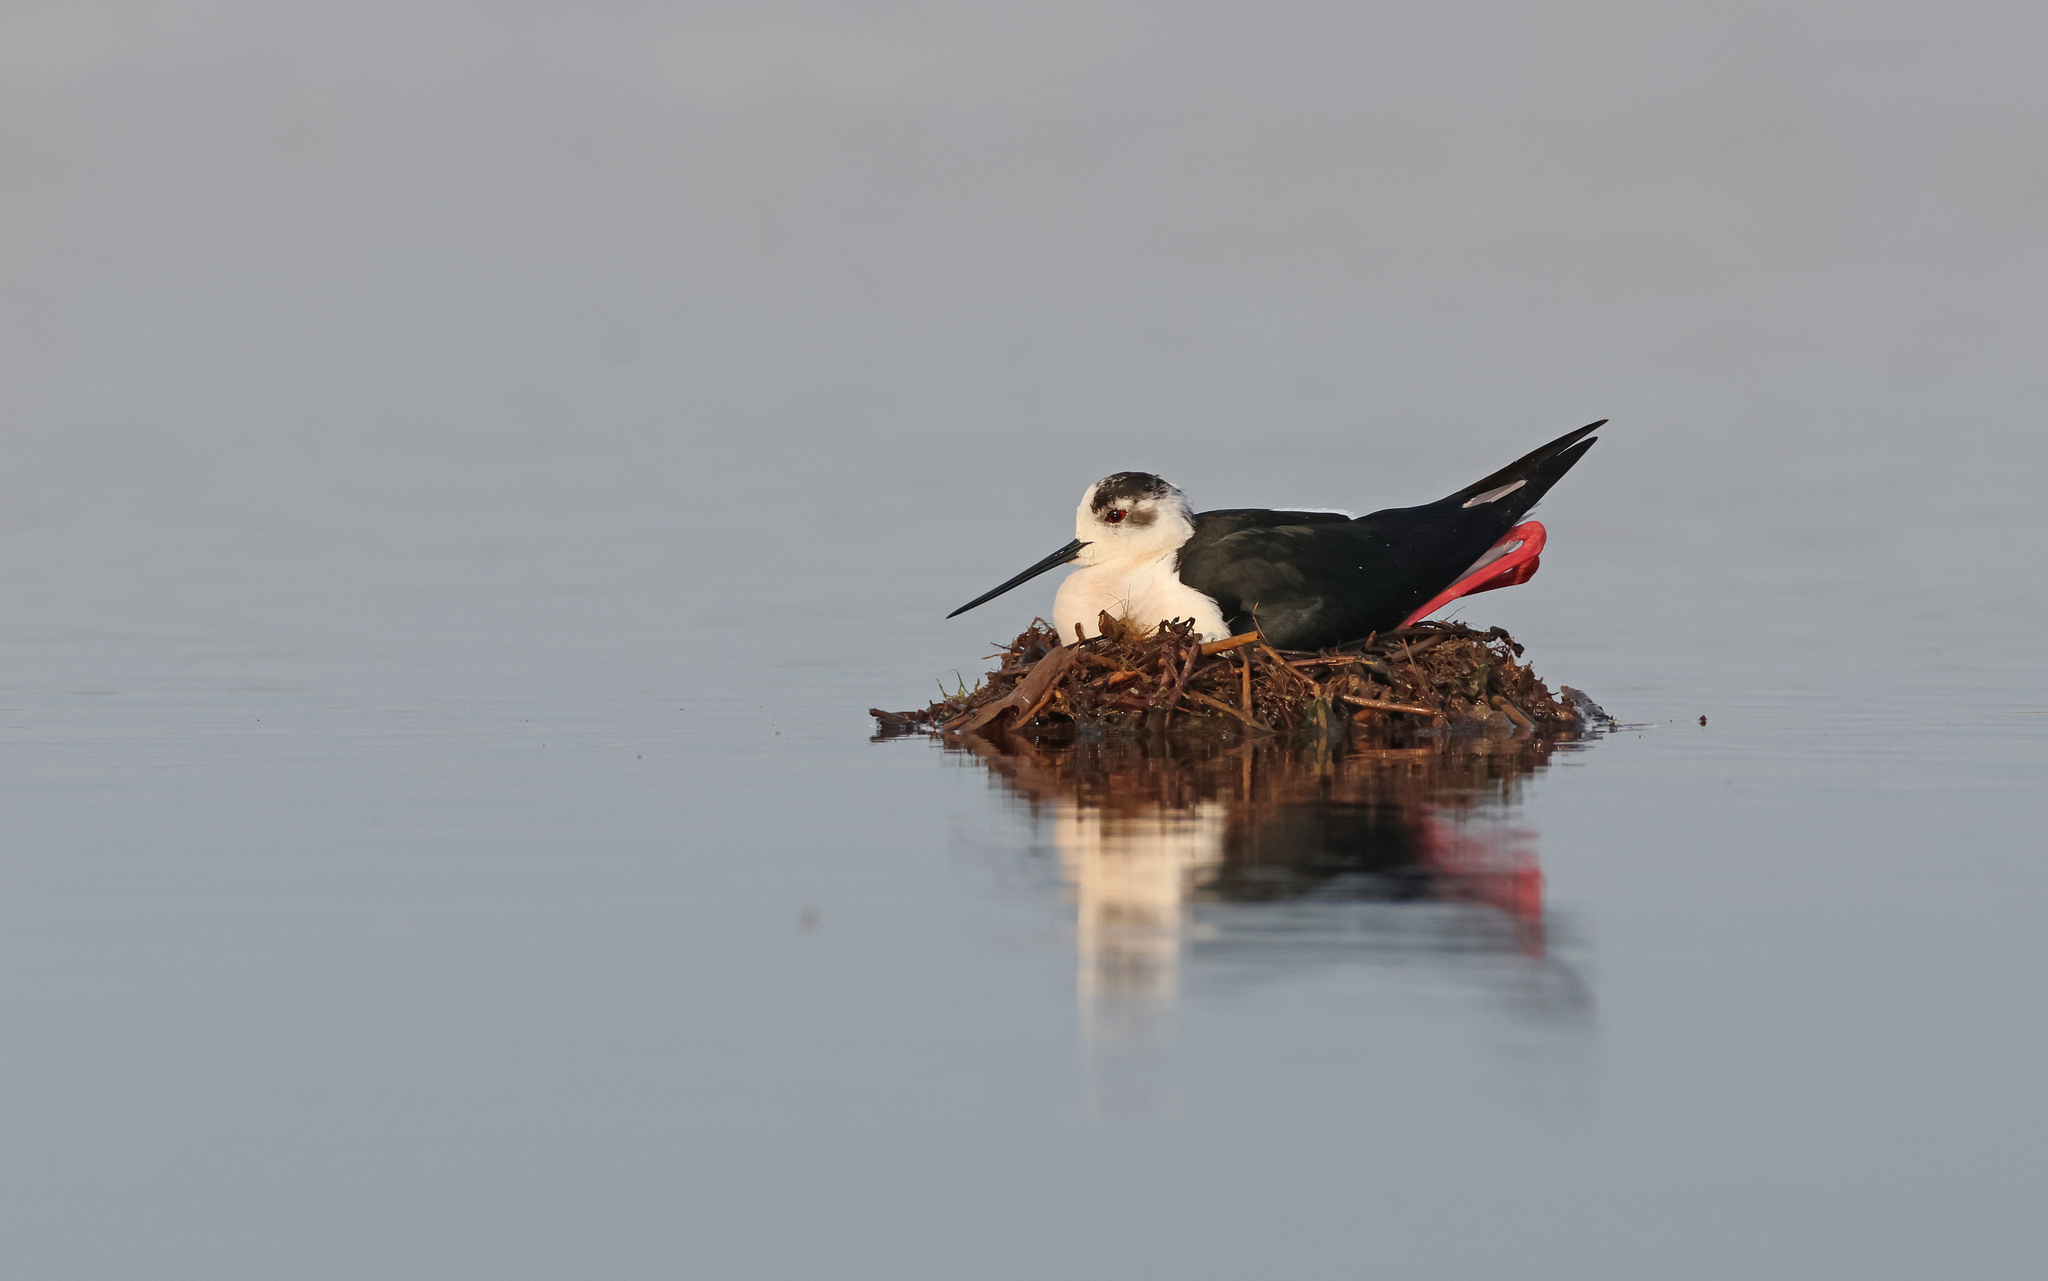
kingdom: Animalia
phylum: Chordata
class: Aves
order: Charadriiformes
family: Recurvirostridae
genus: Himantopus
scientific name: Himantopus himantopus
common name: Black-winged stilt
